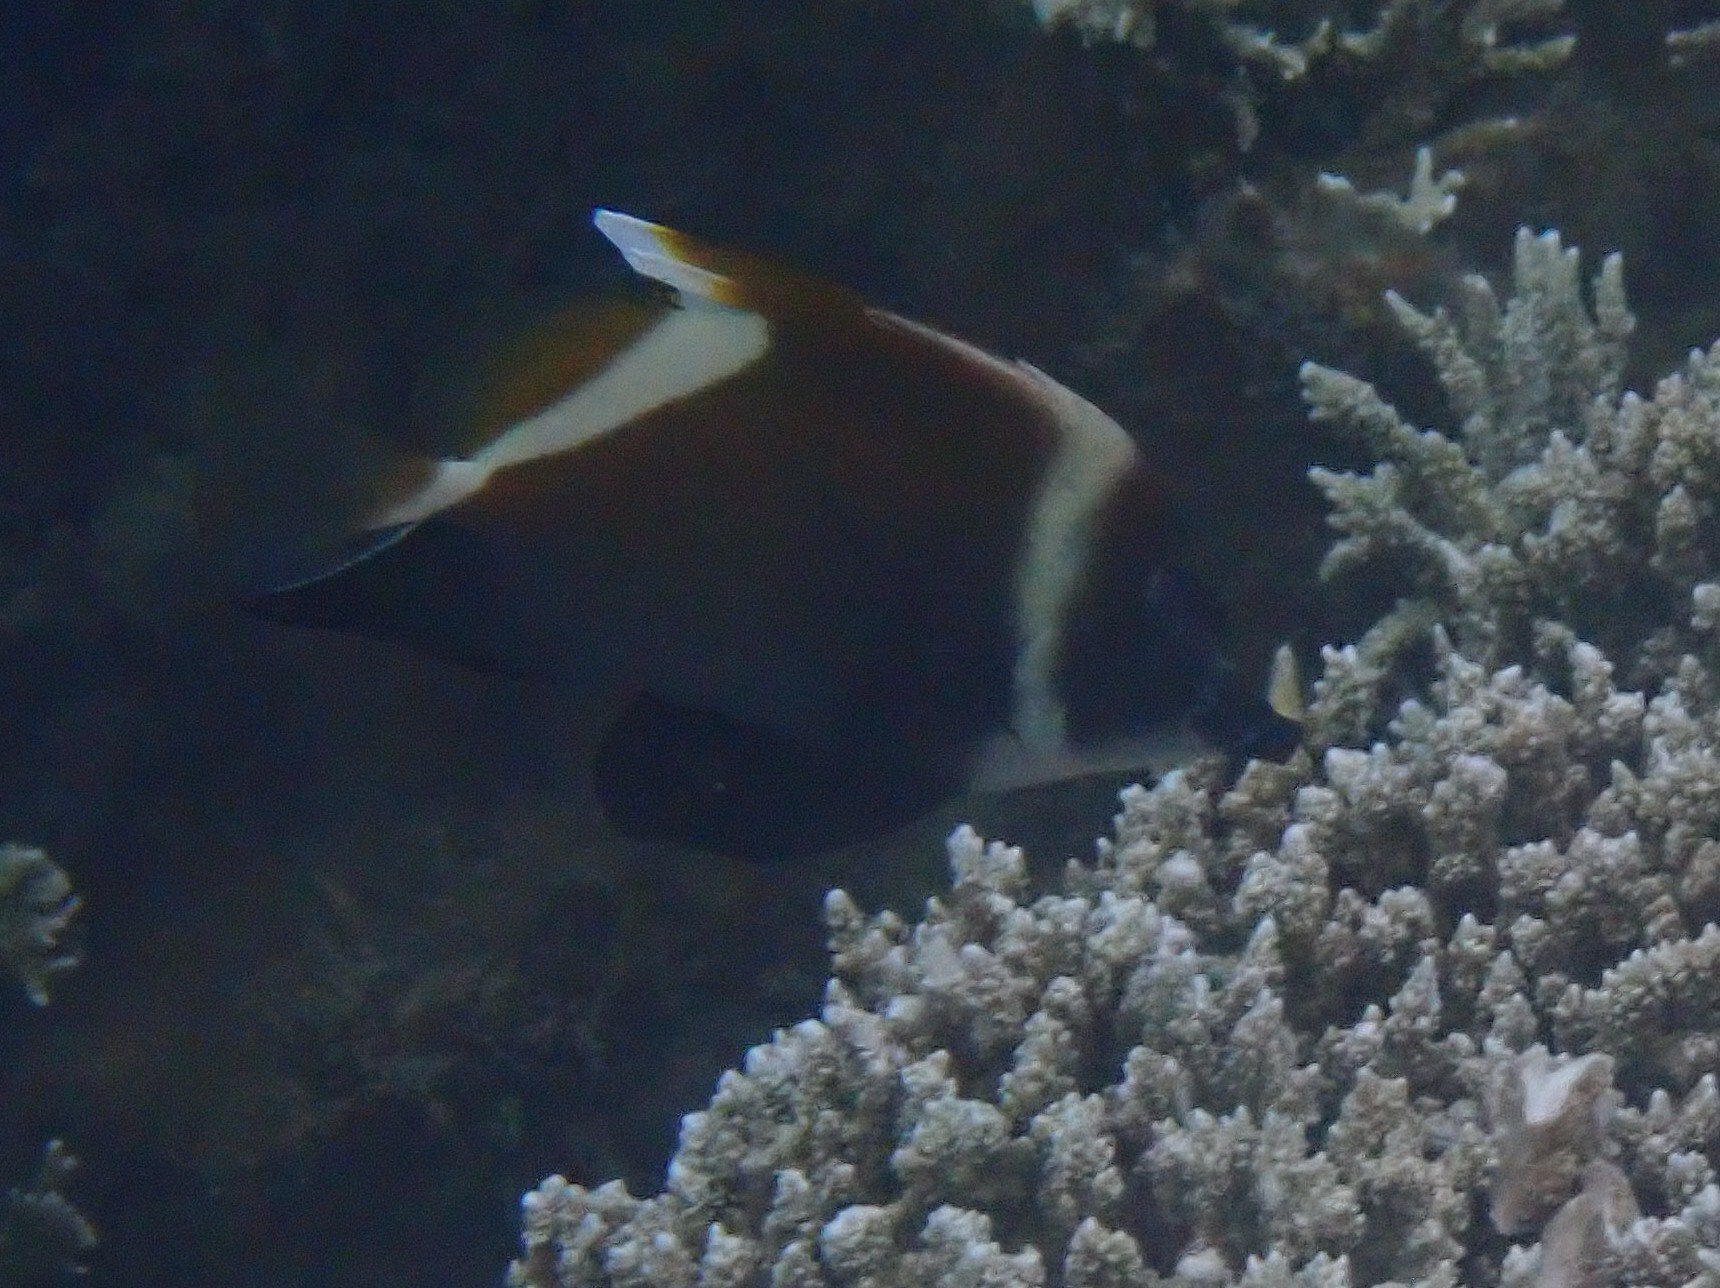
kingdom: Animalia
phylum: Chordata
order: Perciformes
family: Chaetodontidae
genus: Heniochus
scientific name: Heniochus varius
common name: Horned bannerfish
